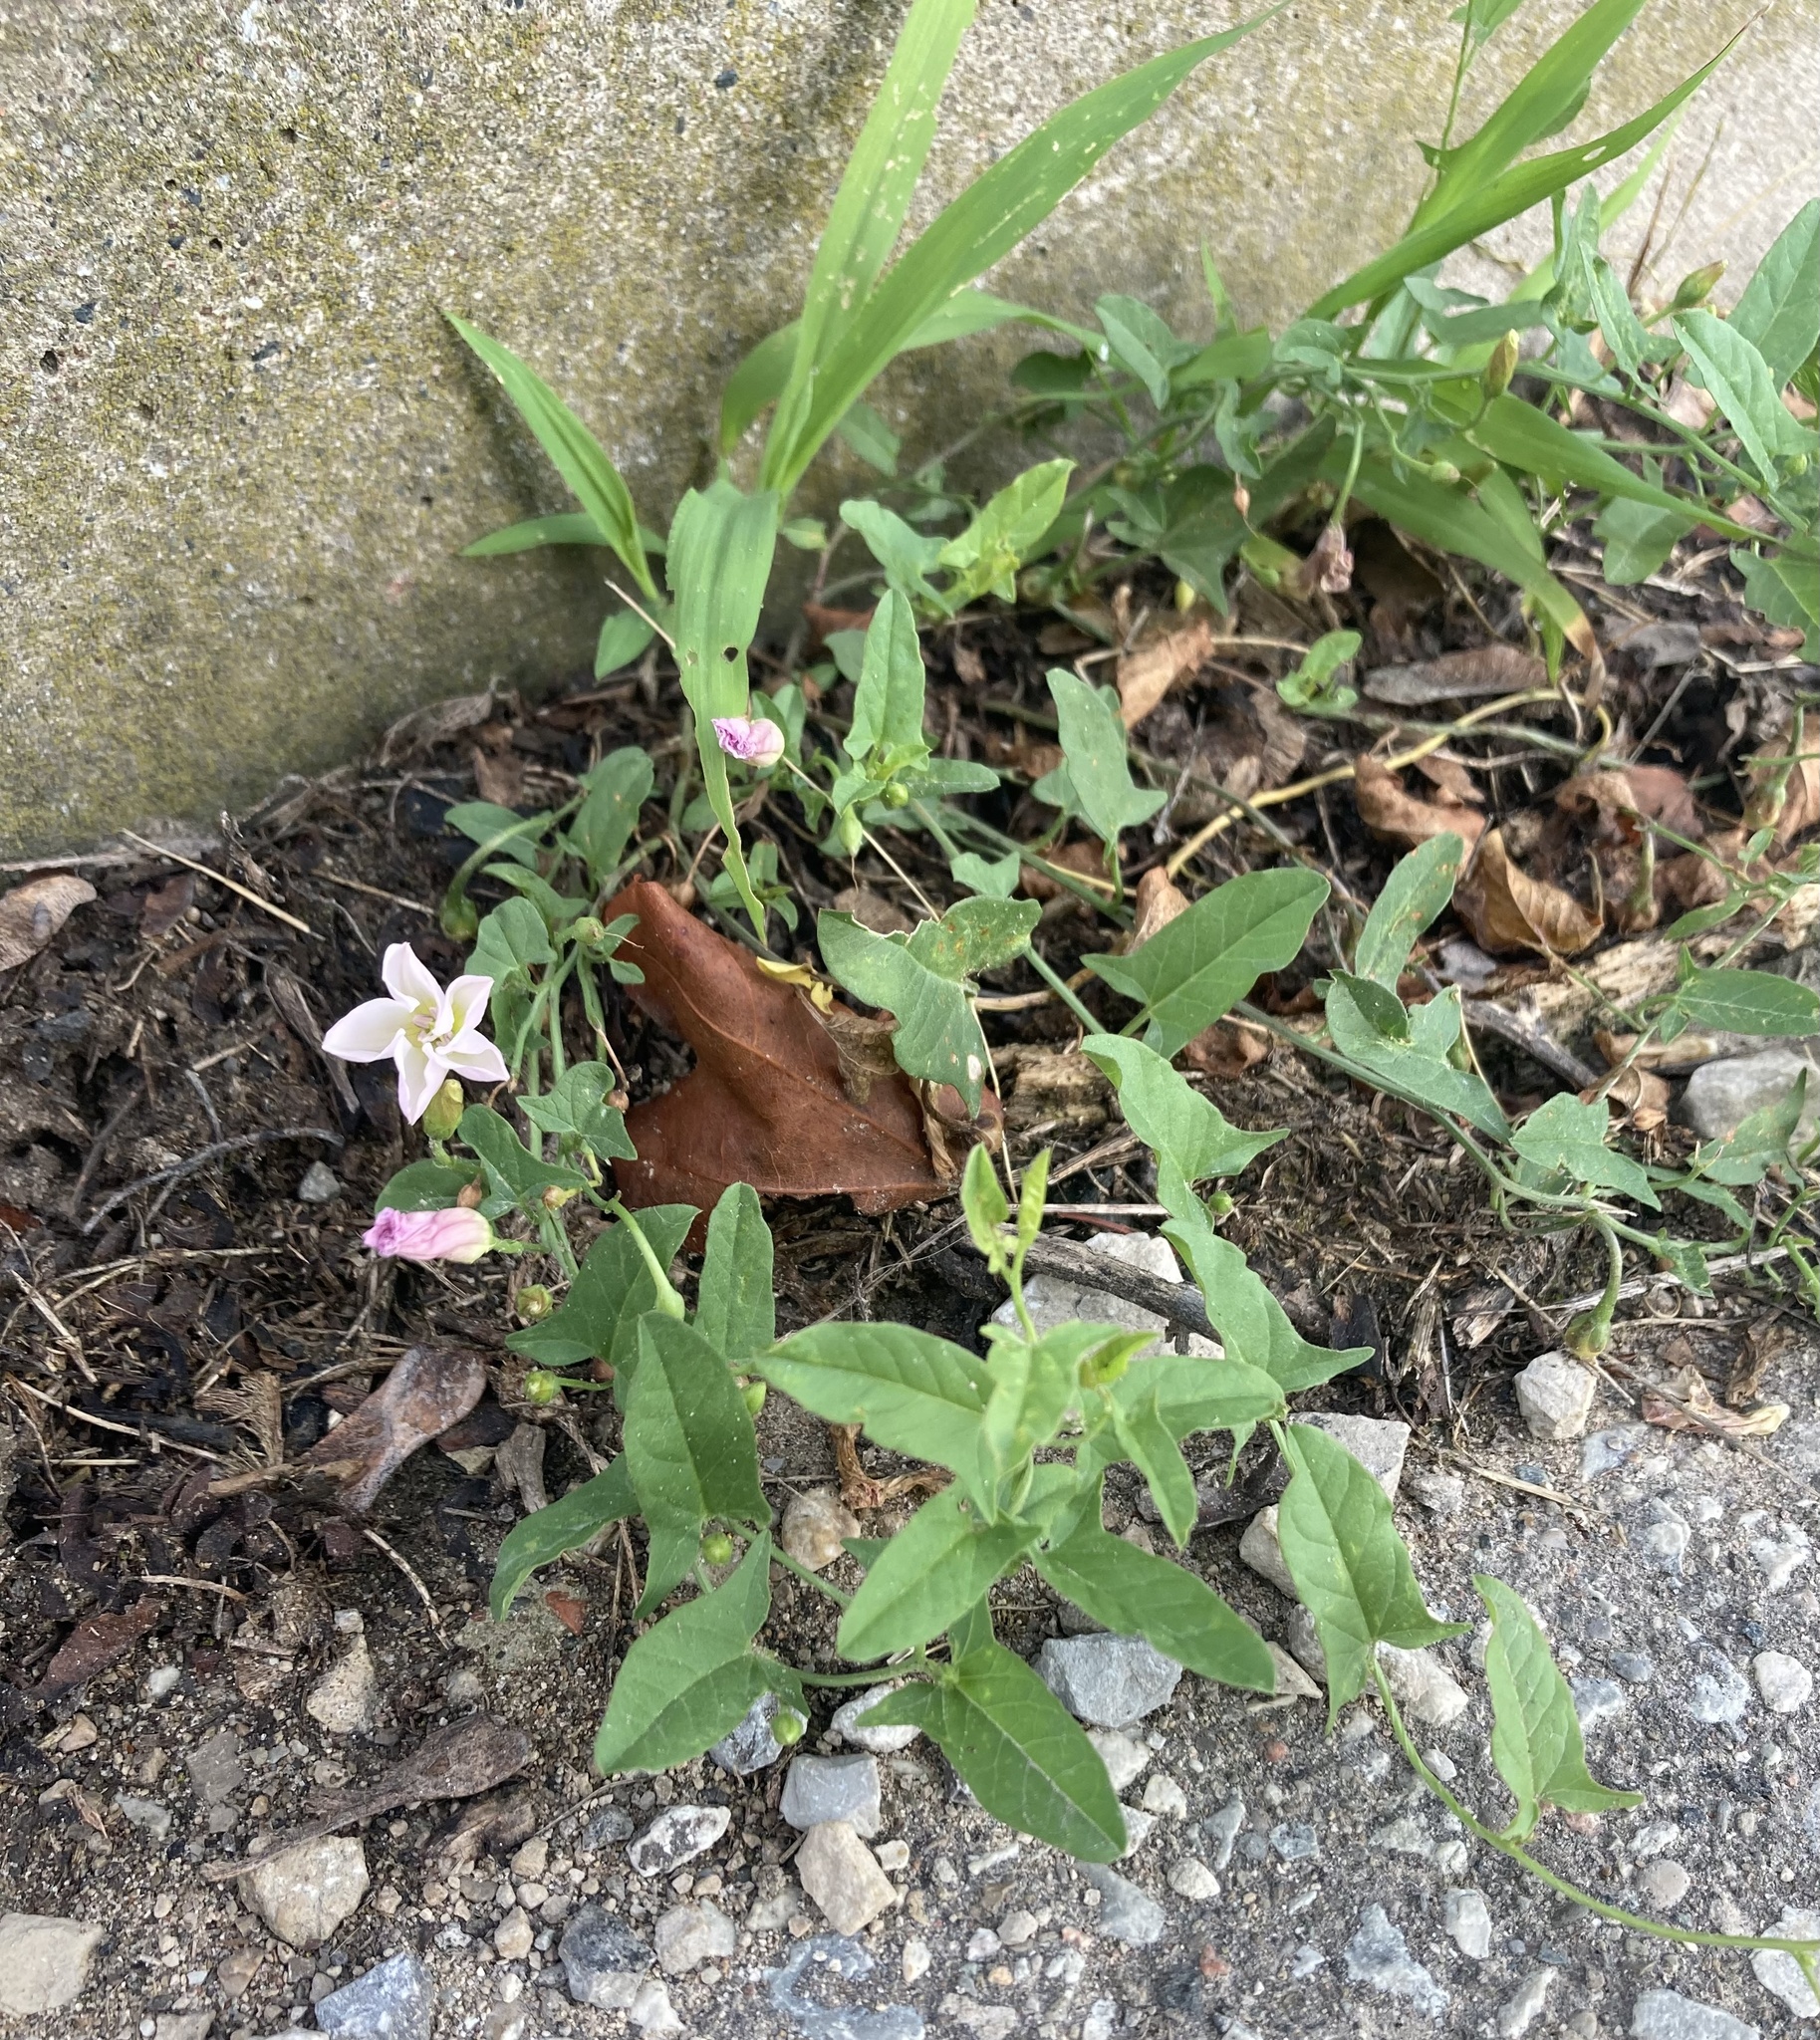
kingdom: Plantae
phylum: Tracheophyta
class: Magnoliopsida
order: Solanales
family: Convolvulaceae
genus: Convolvulus
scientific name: Convolvulus arvensis
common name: Field bindweed
